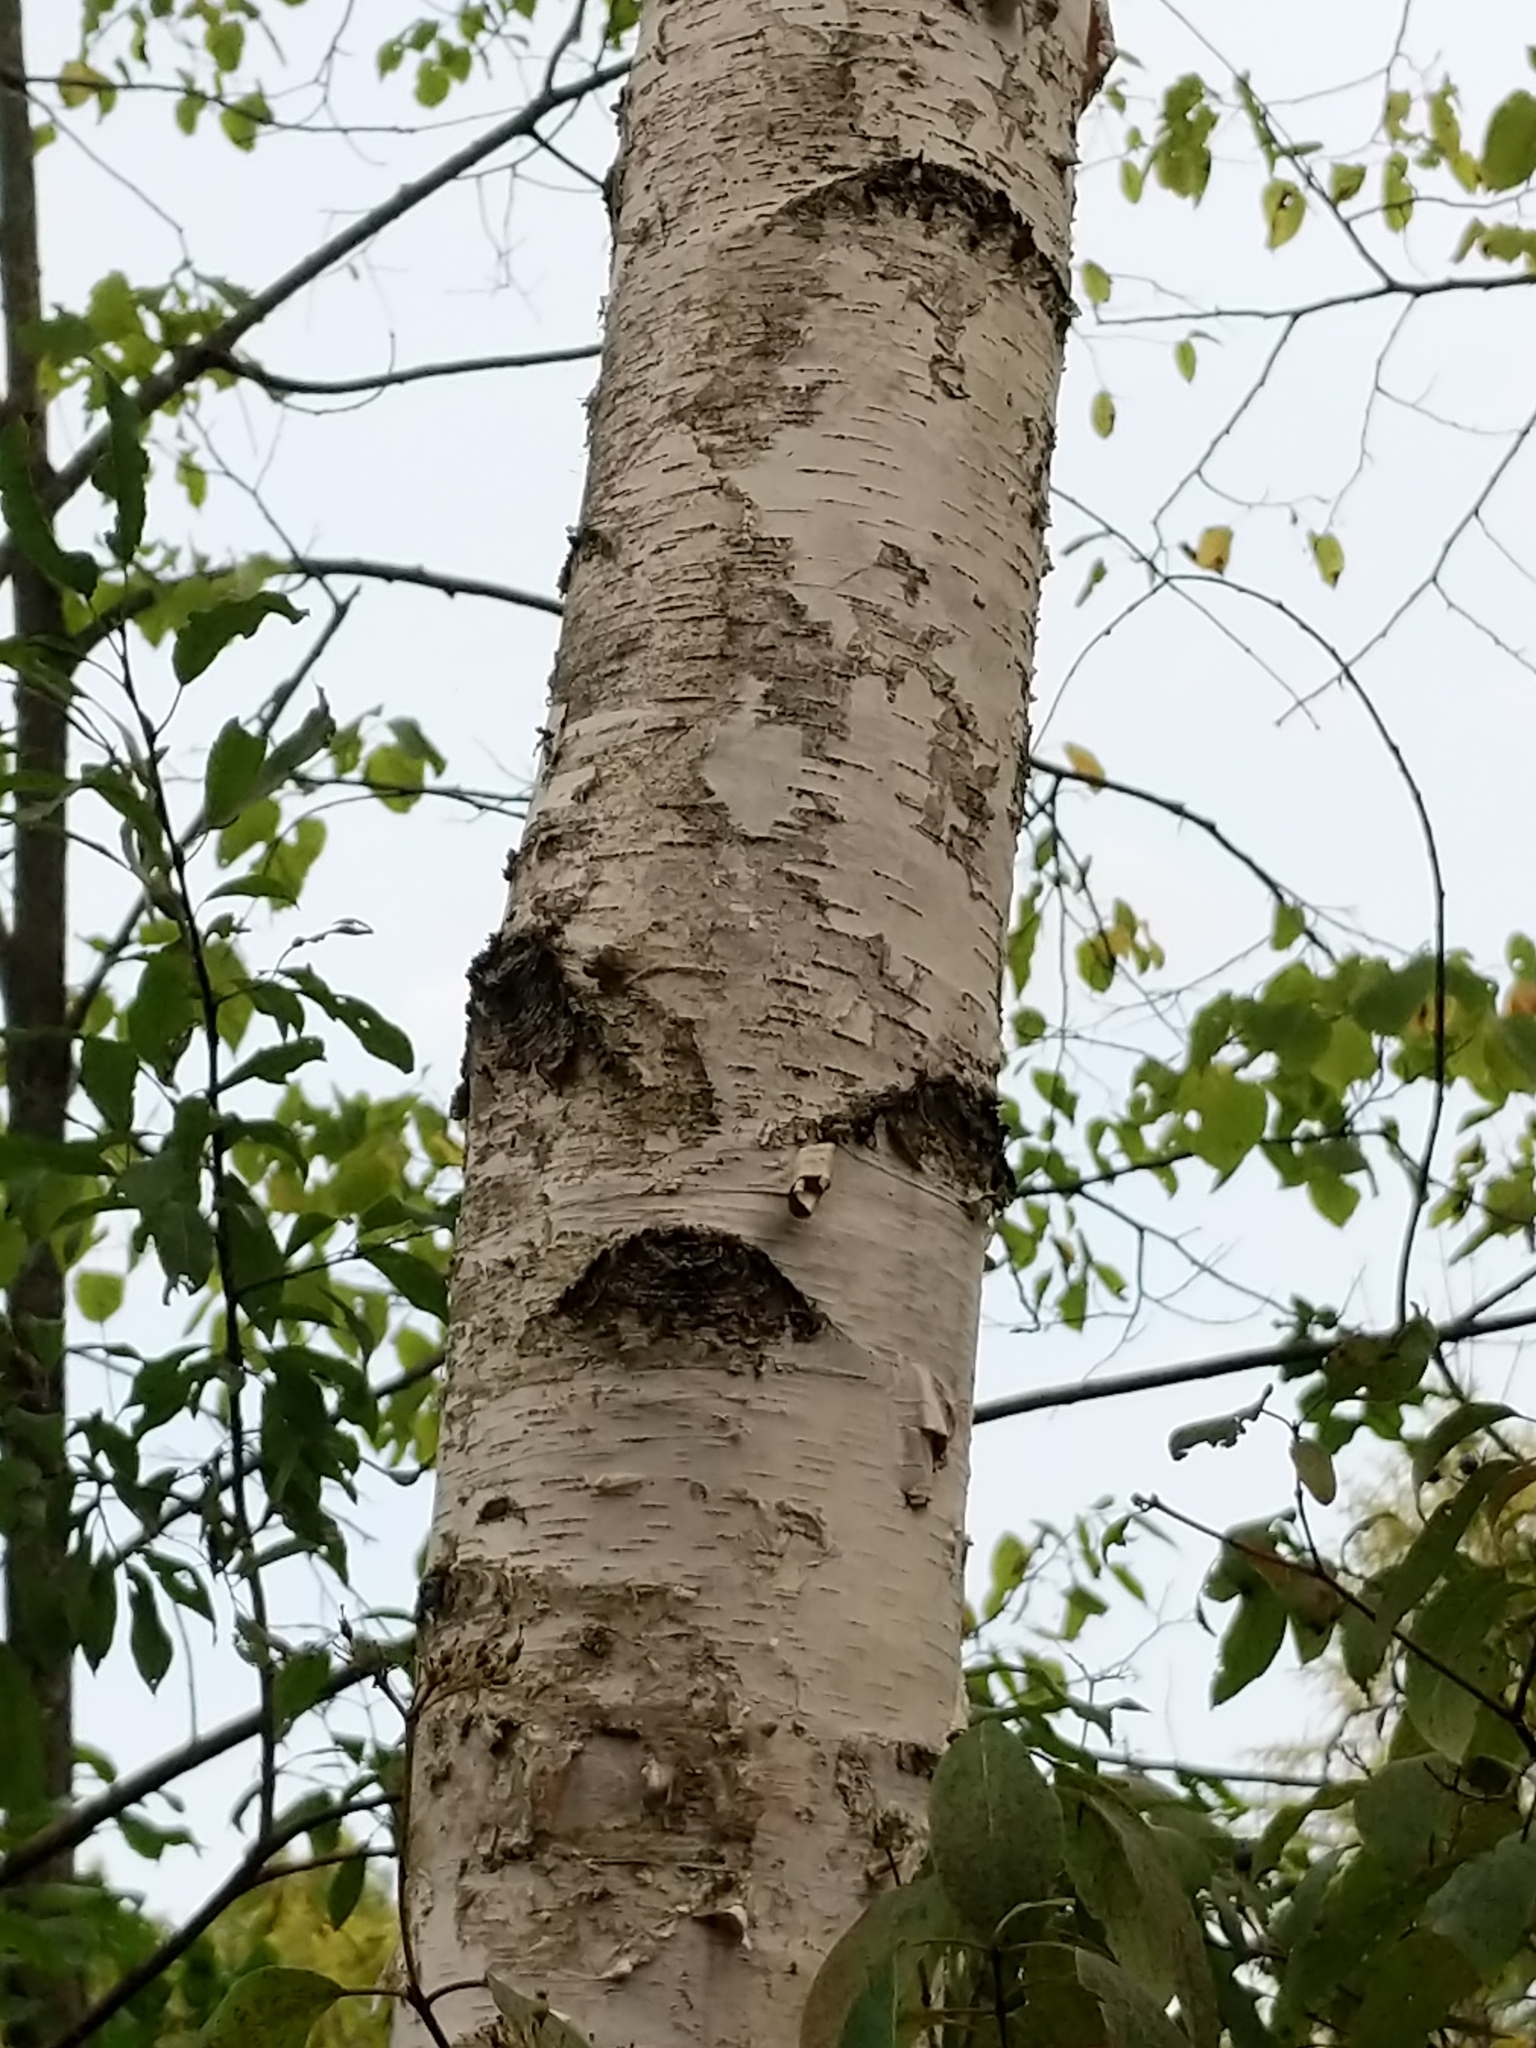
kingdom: Plantae
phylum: Tracheophyta
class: Magnoliopsida
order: Fagales
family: Betulaceae
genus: Betula
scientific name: Betula papyrifera
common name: Paper birch
